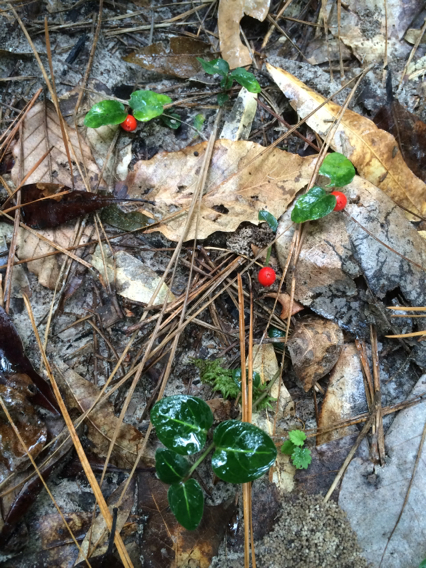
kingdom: Plantae
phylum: Tracheophyta
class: Magnoliopsida
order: Gentianales
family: Rubiaceae
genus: Mitchella
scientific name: Mitchella repens
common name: Partridge-berry
